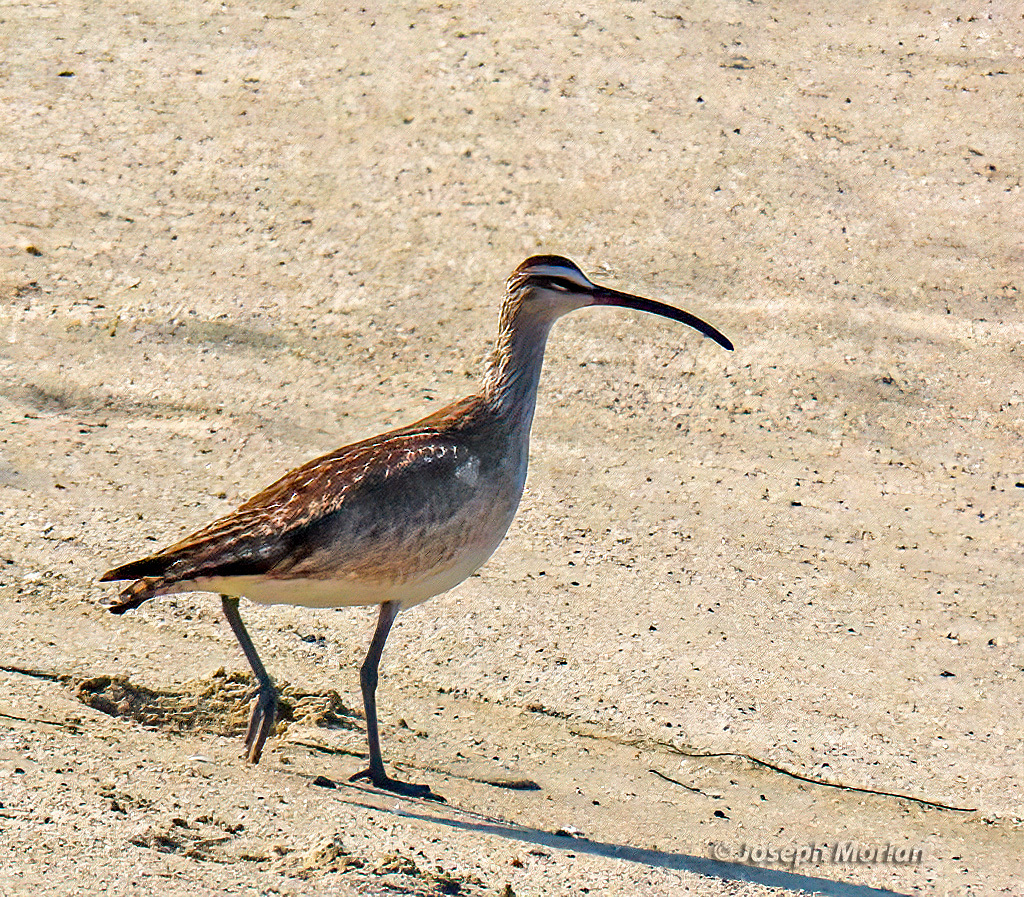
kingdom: Animalia
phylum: Chordata
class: Aves
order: Charadriiformes
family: Scolopacidae
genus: Numenius
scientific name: Numenius phaeopus
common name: Whimbrel
